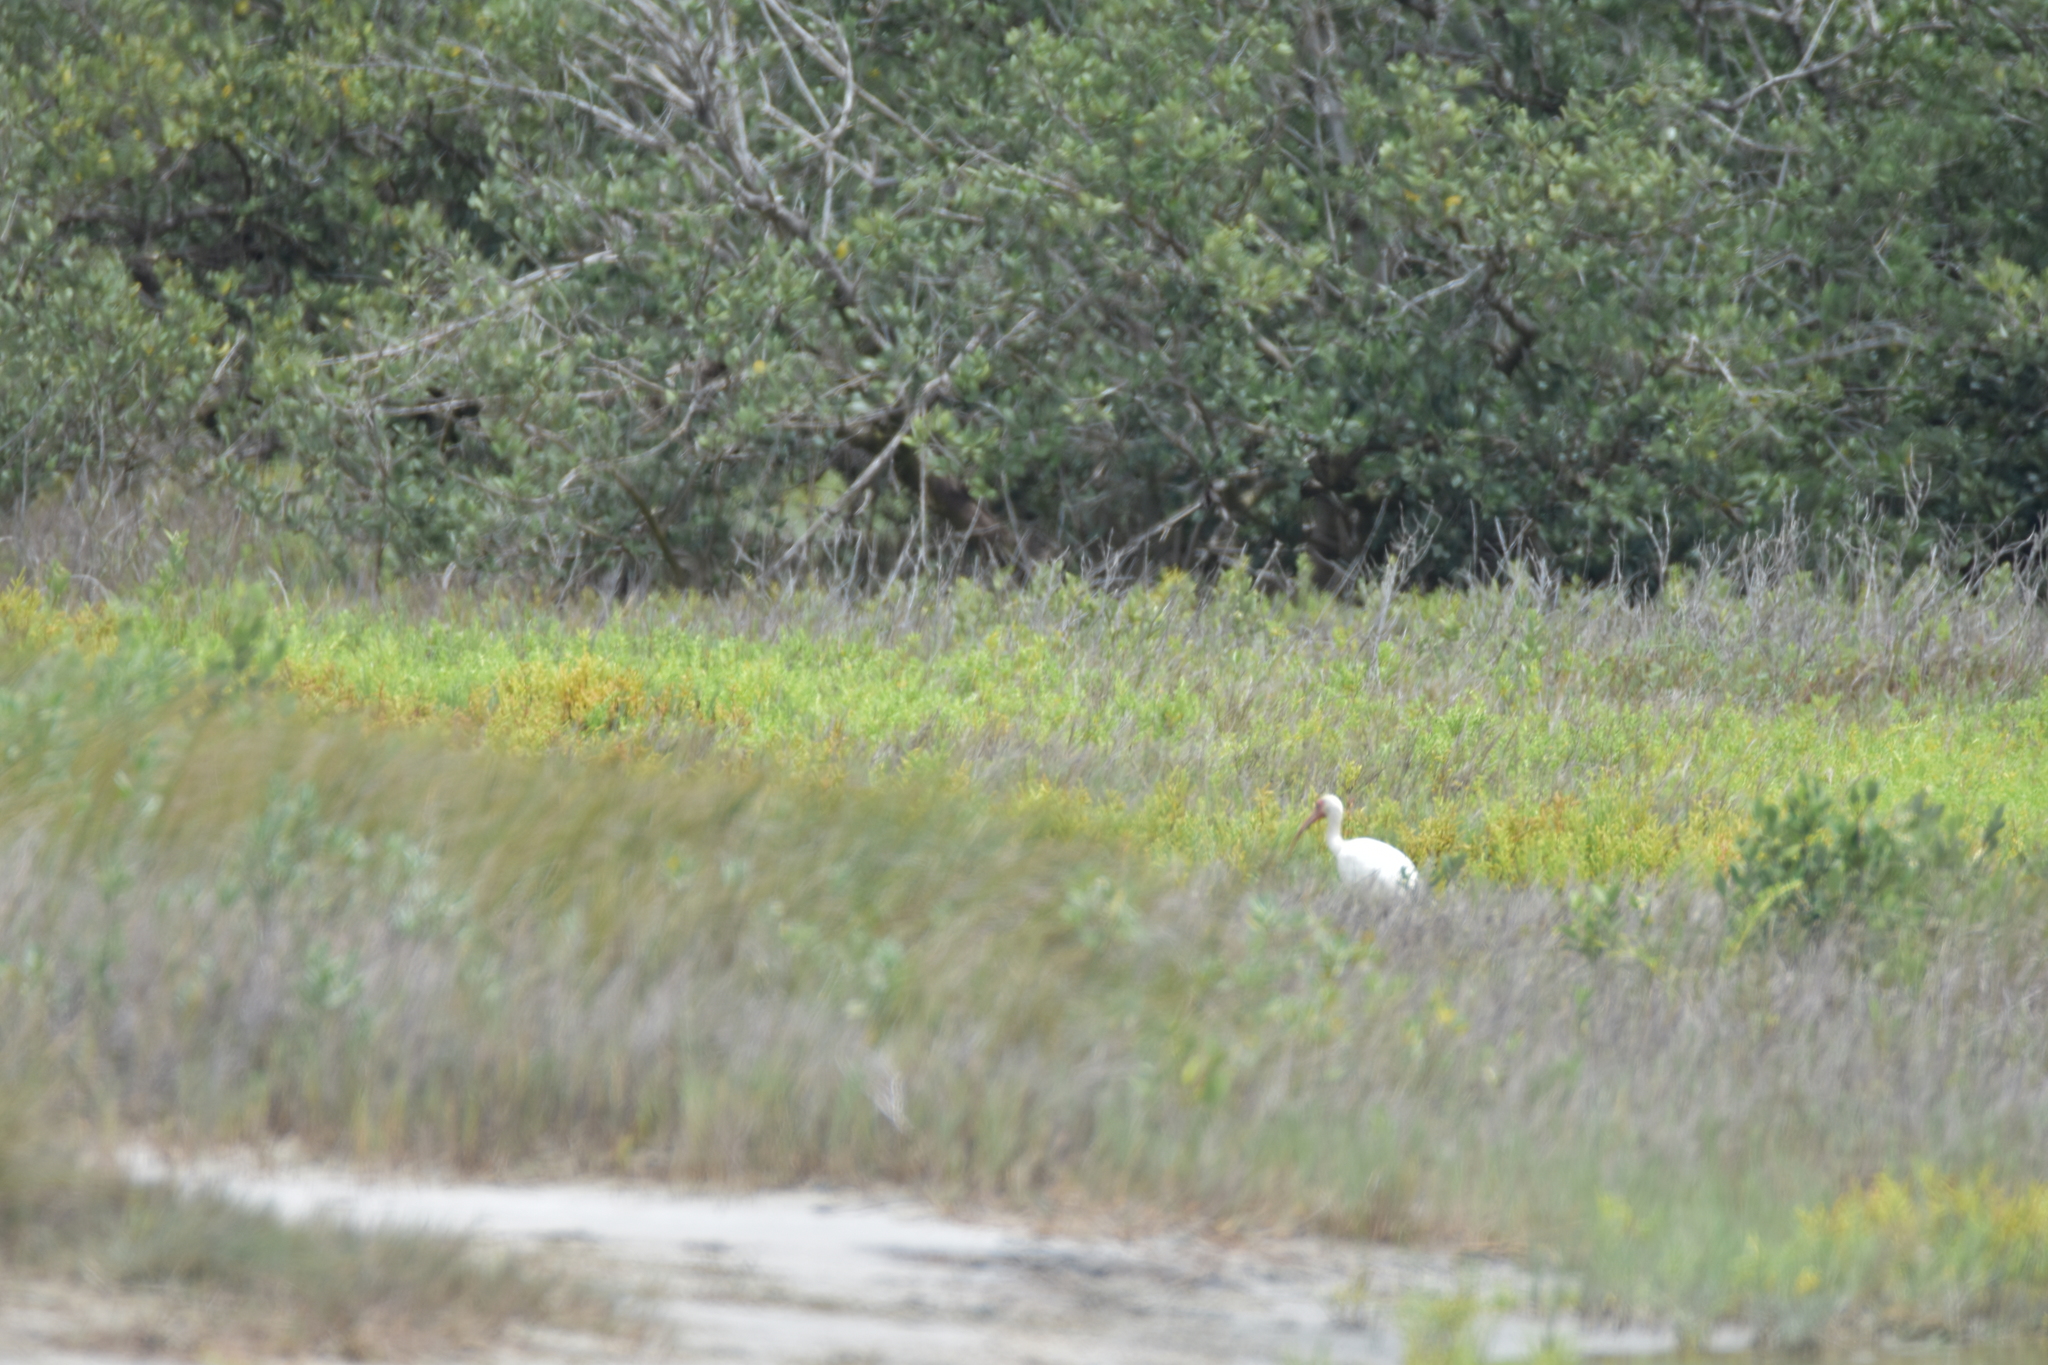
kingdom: Animalia
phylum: Chordata
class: Aves
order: Pelecaniformes
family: Threskiornithidae
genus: Eudocimus
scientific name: Eudocimus albus
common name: White ibis
